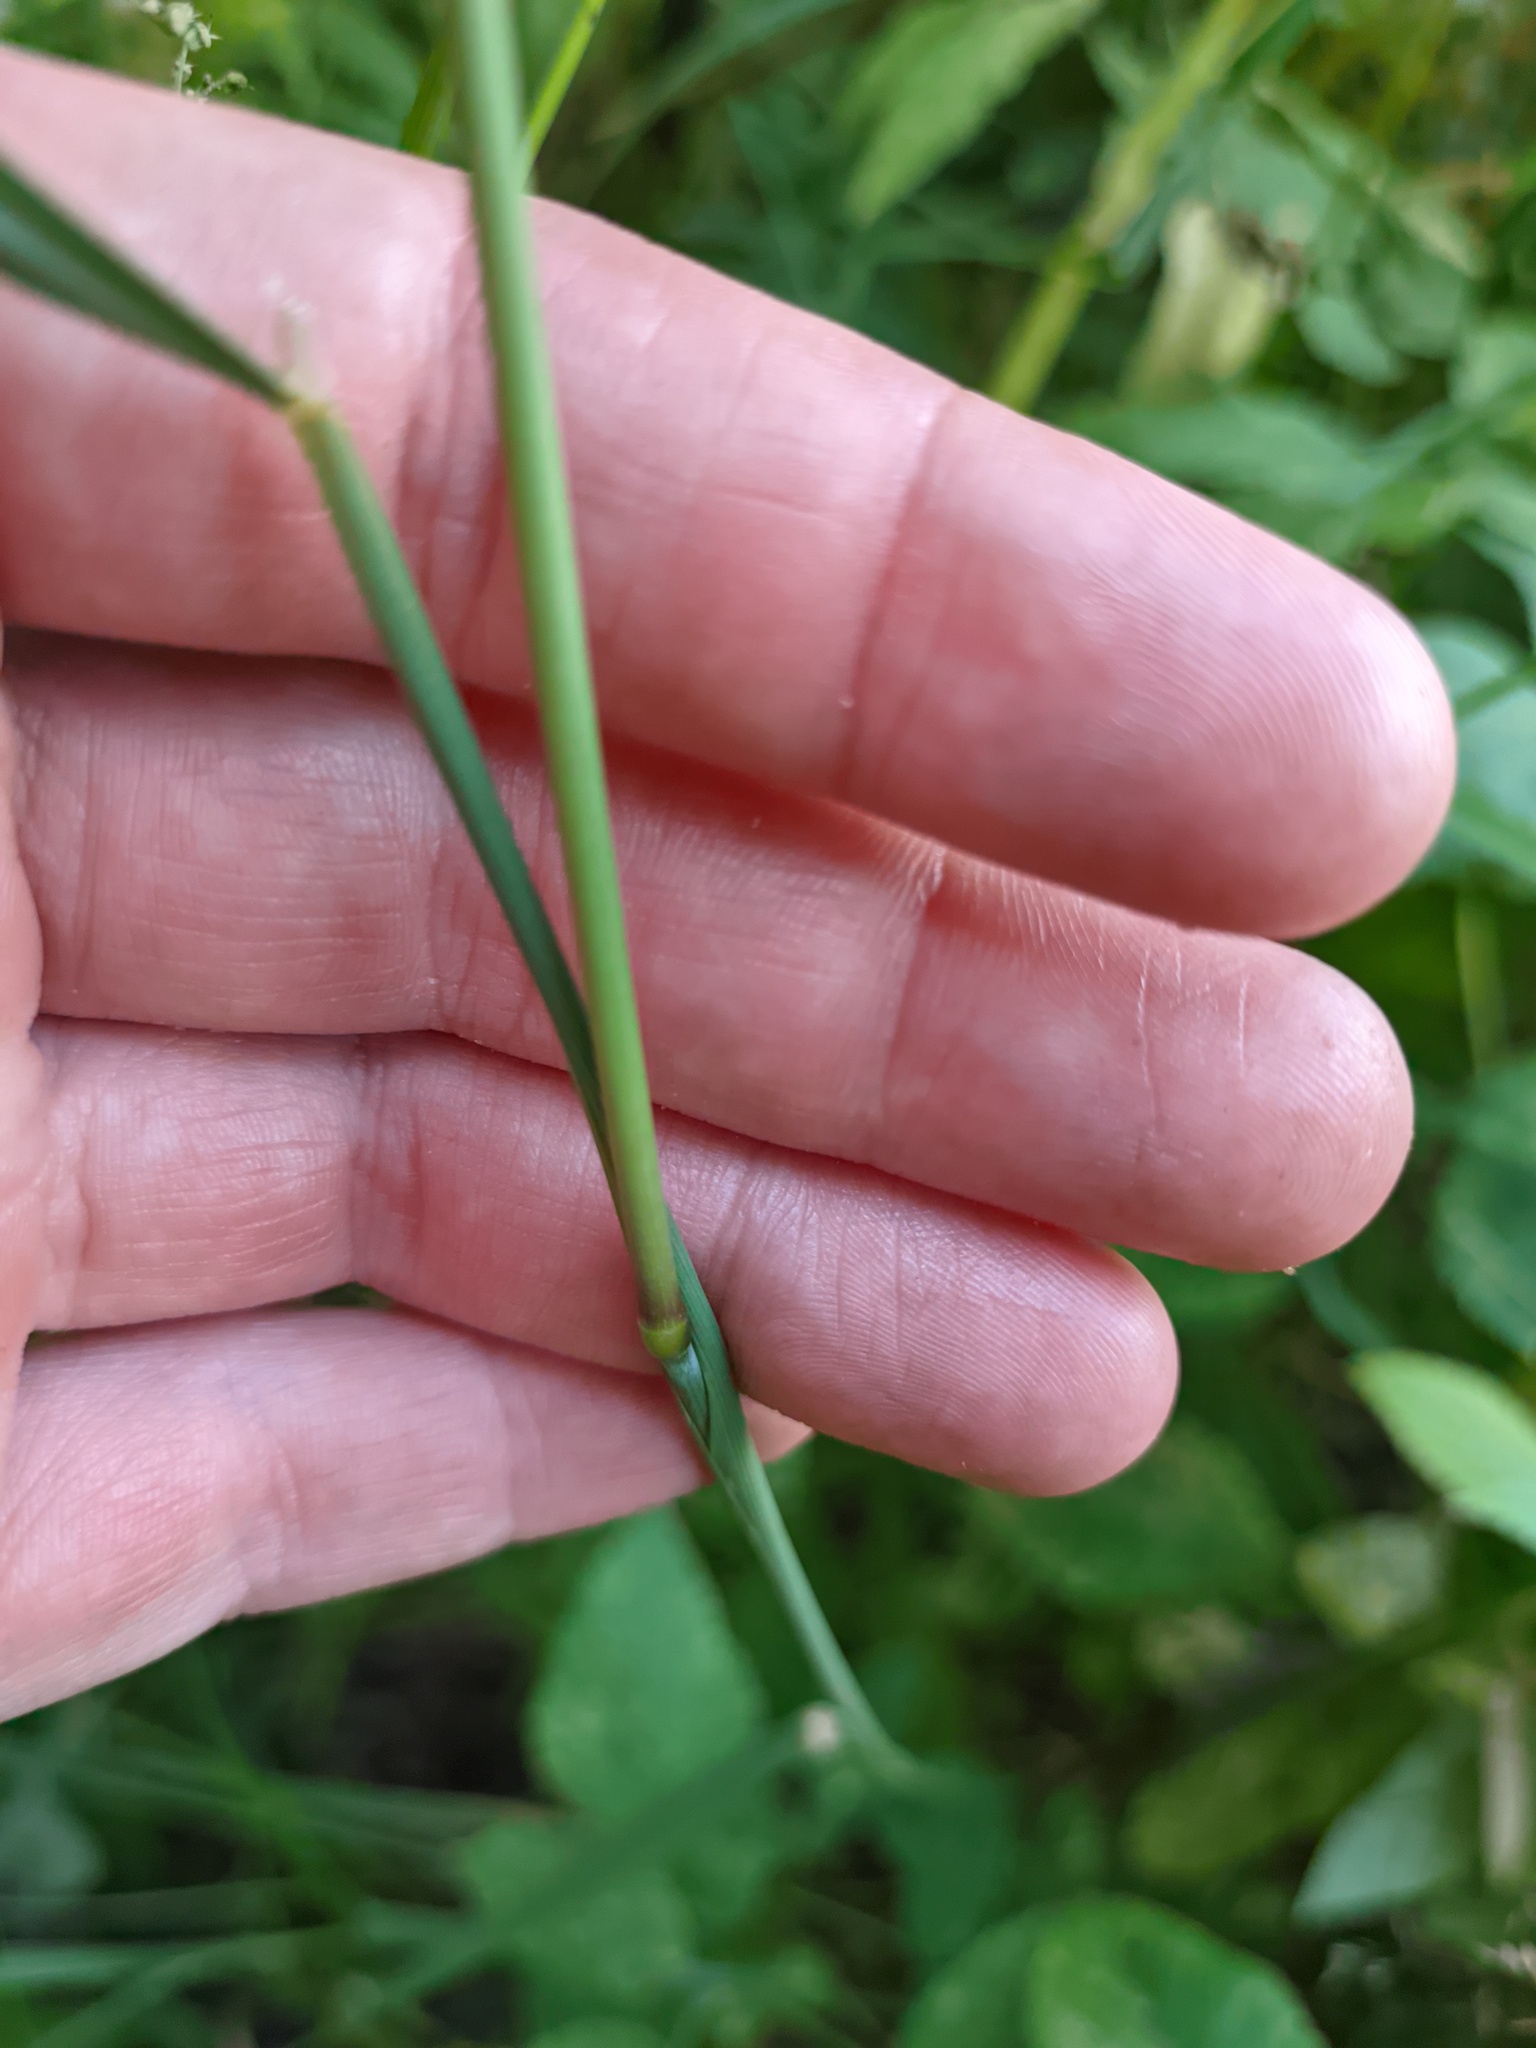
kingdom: Plantae
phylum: Tracheophyta
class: Liliopsida
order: Poales
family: Poaceae
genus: Calamagrostis
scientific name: Calamagrostis epigejos
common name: Wood small-reed
